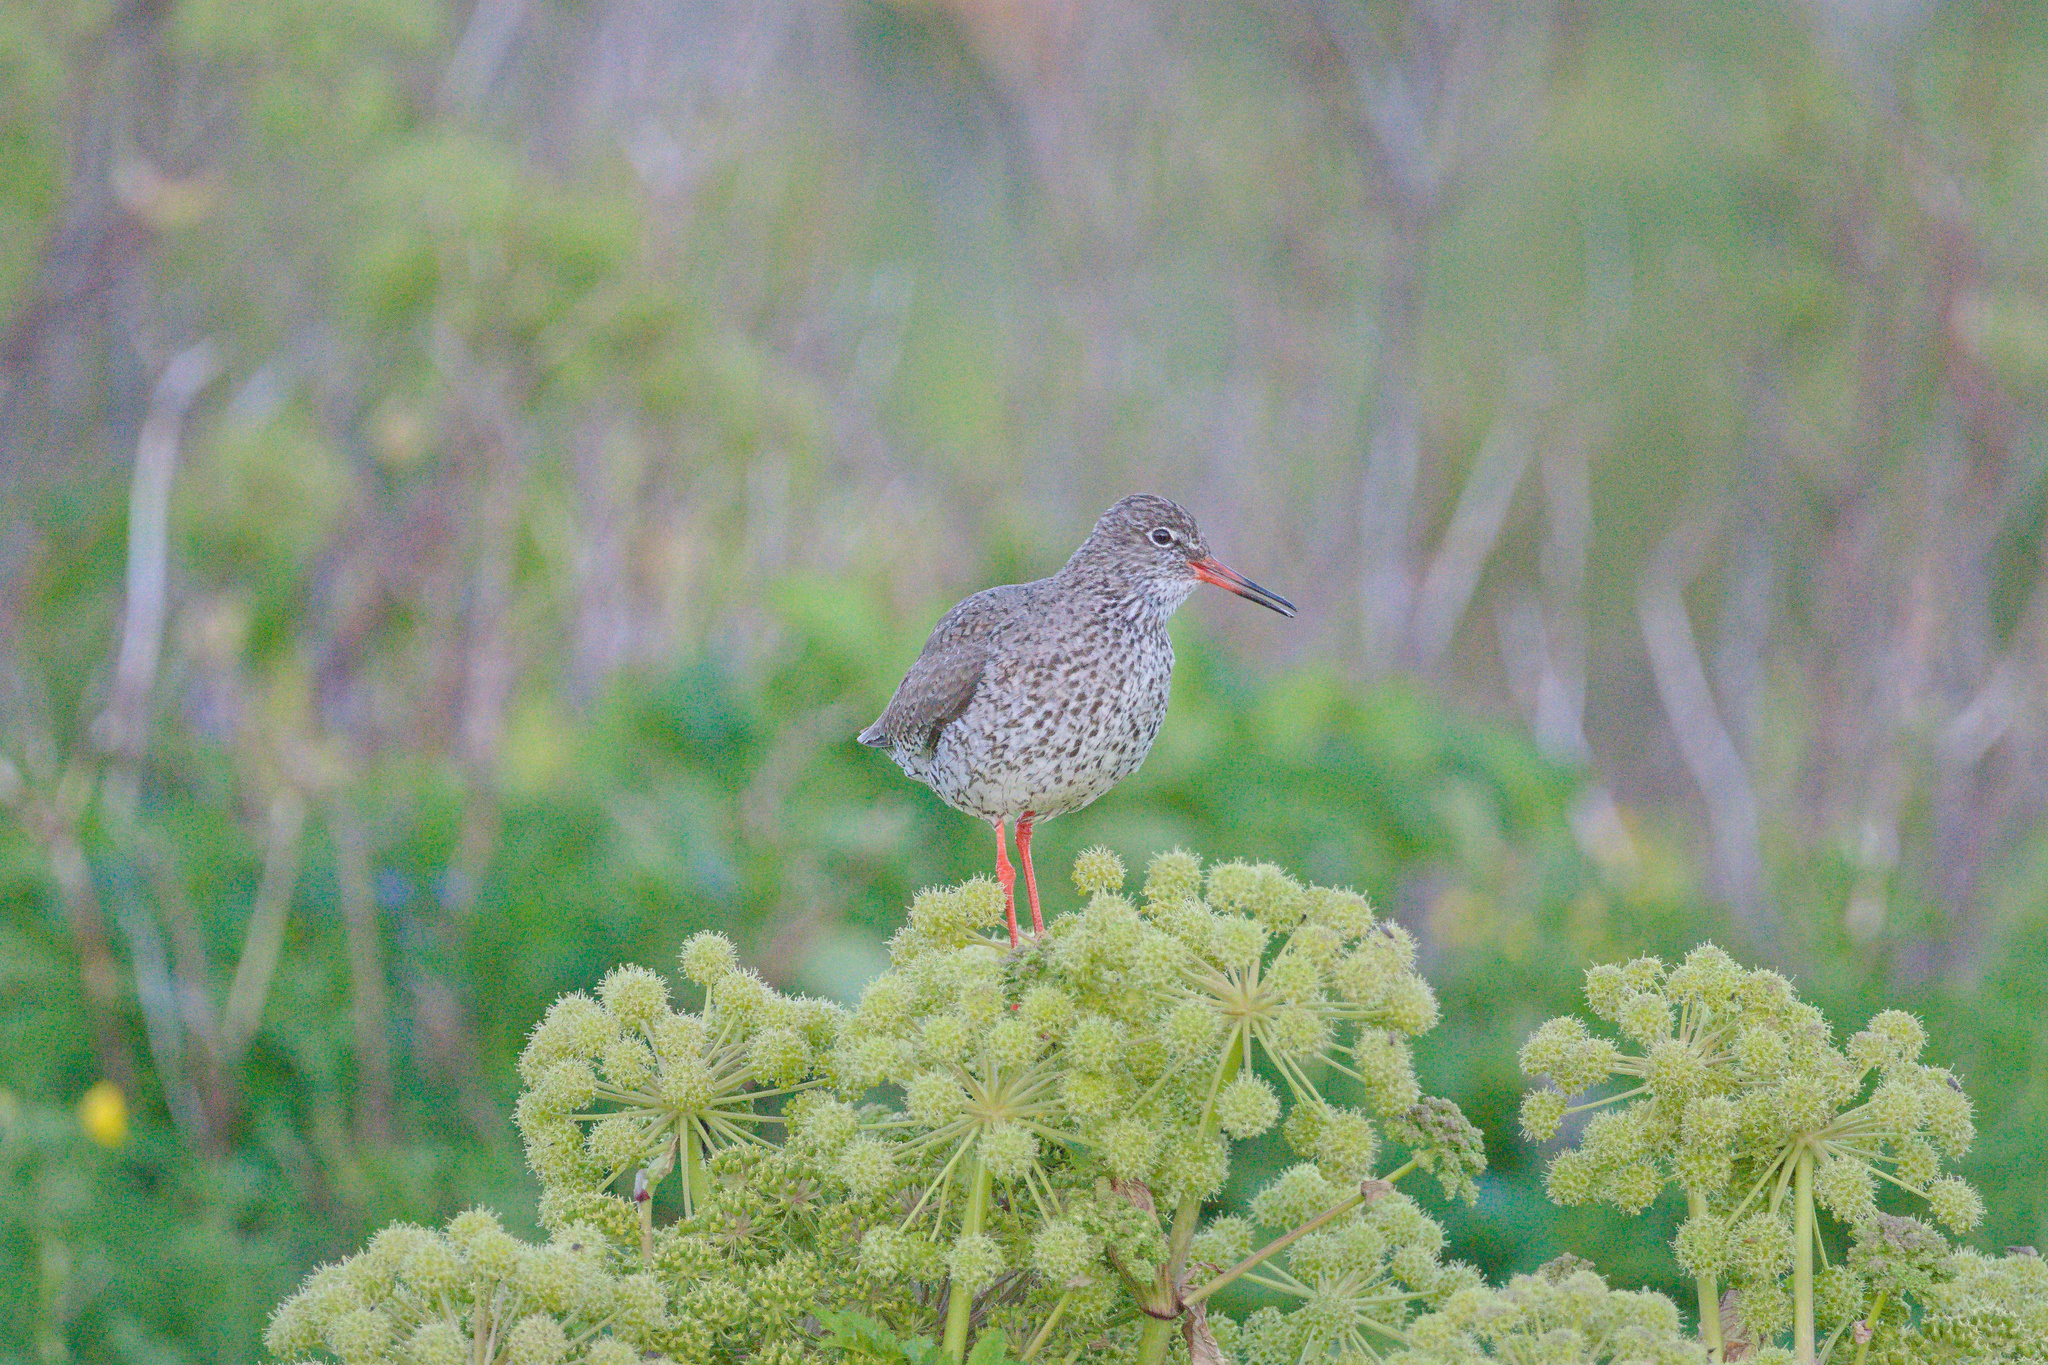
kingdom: Animalia
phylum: Chordata
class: Aves
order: Charadriiformes
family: Scolopacidae
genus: Tringa
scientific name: Tringa totanus
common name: Common redshank
